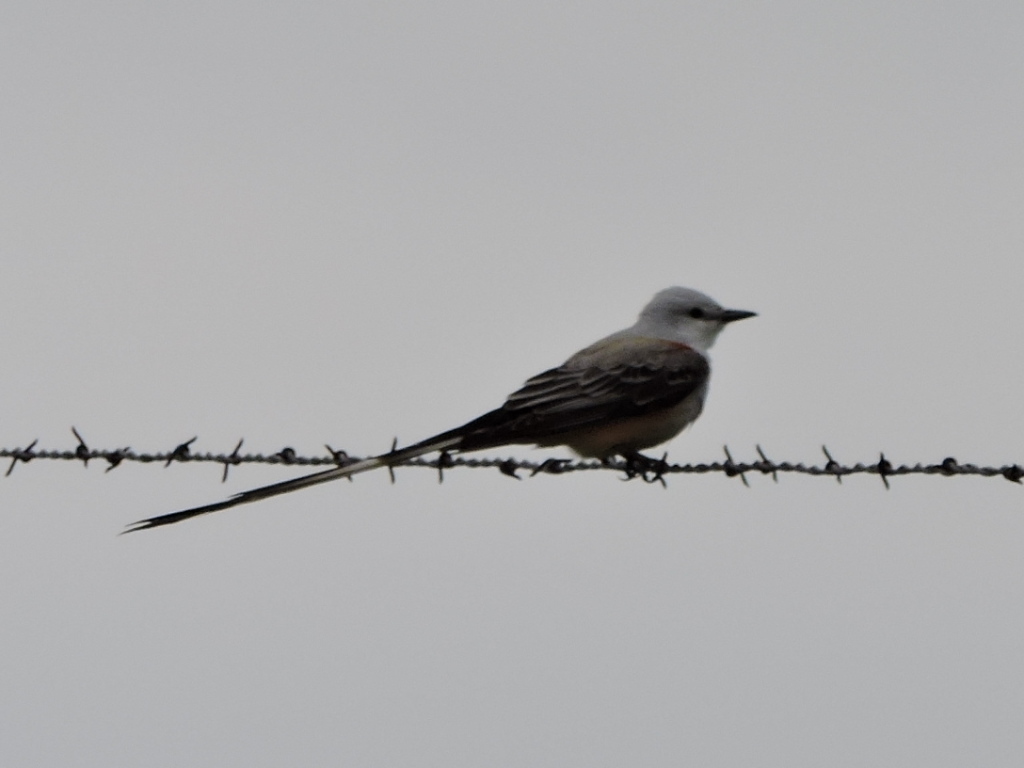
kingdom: Animalia
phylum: Chordata
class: Aves
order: Passeriformes
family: Tyrannidae
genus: Tyrannus
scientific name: Tyrannus forficatus
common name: Scissor-tailed flycatcher
